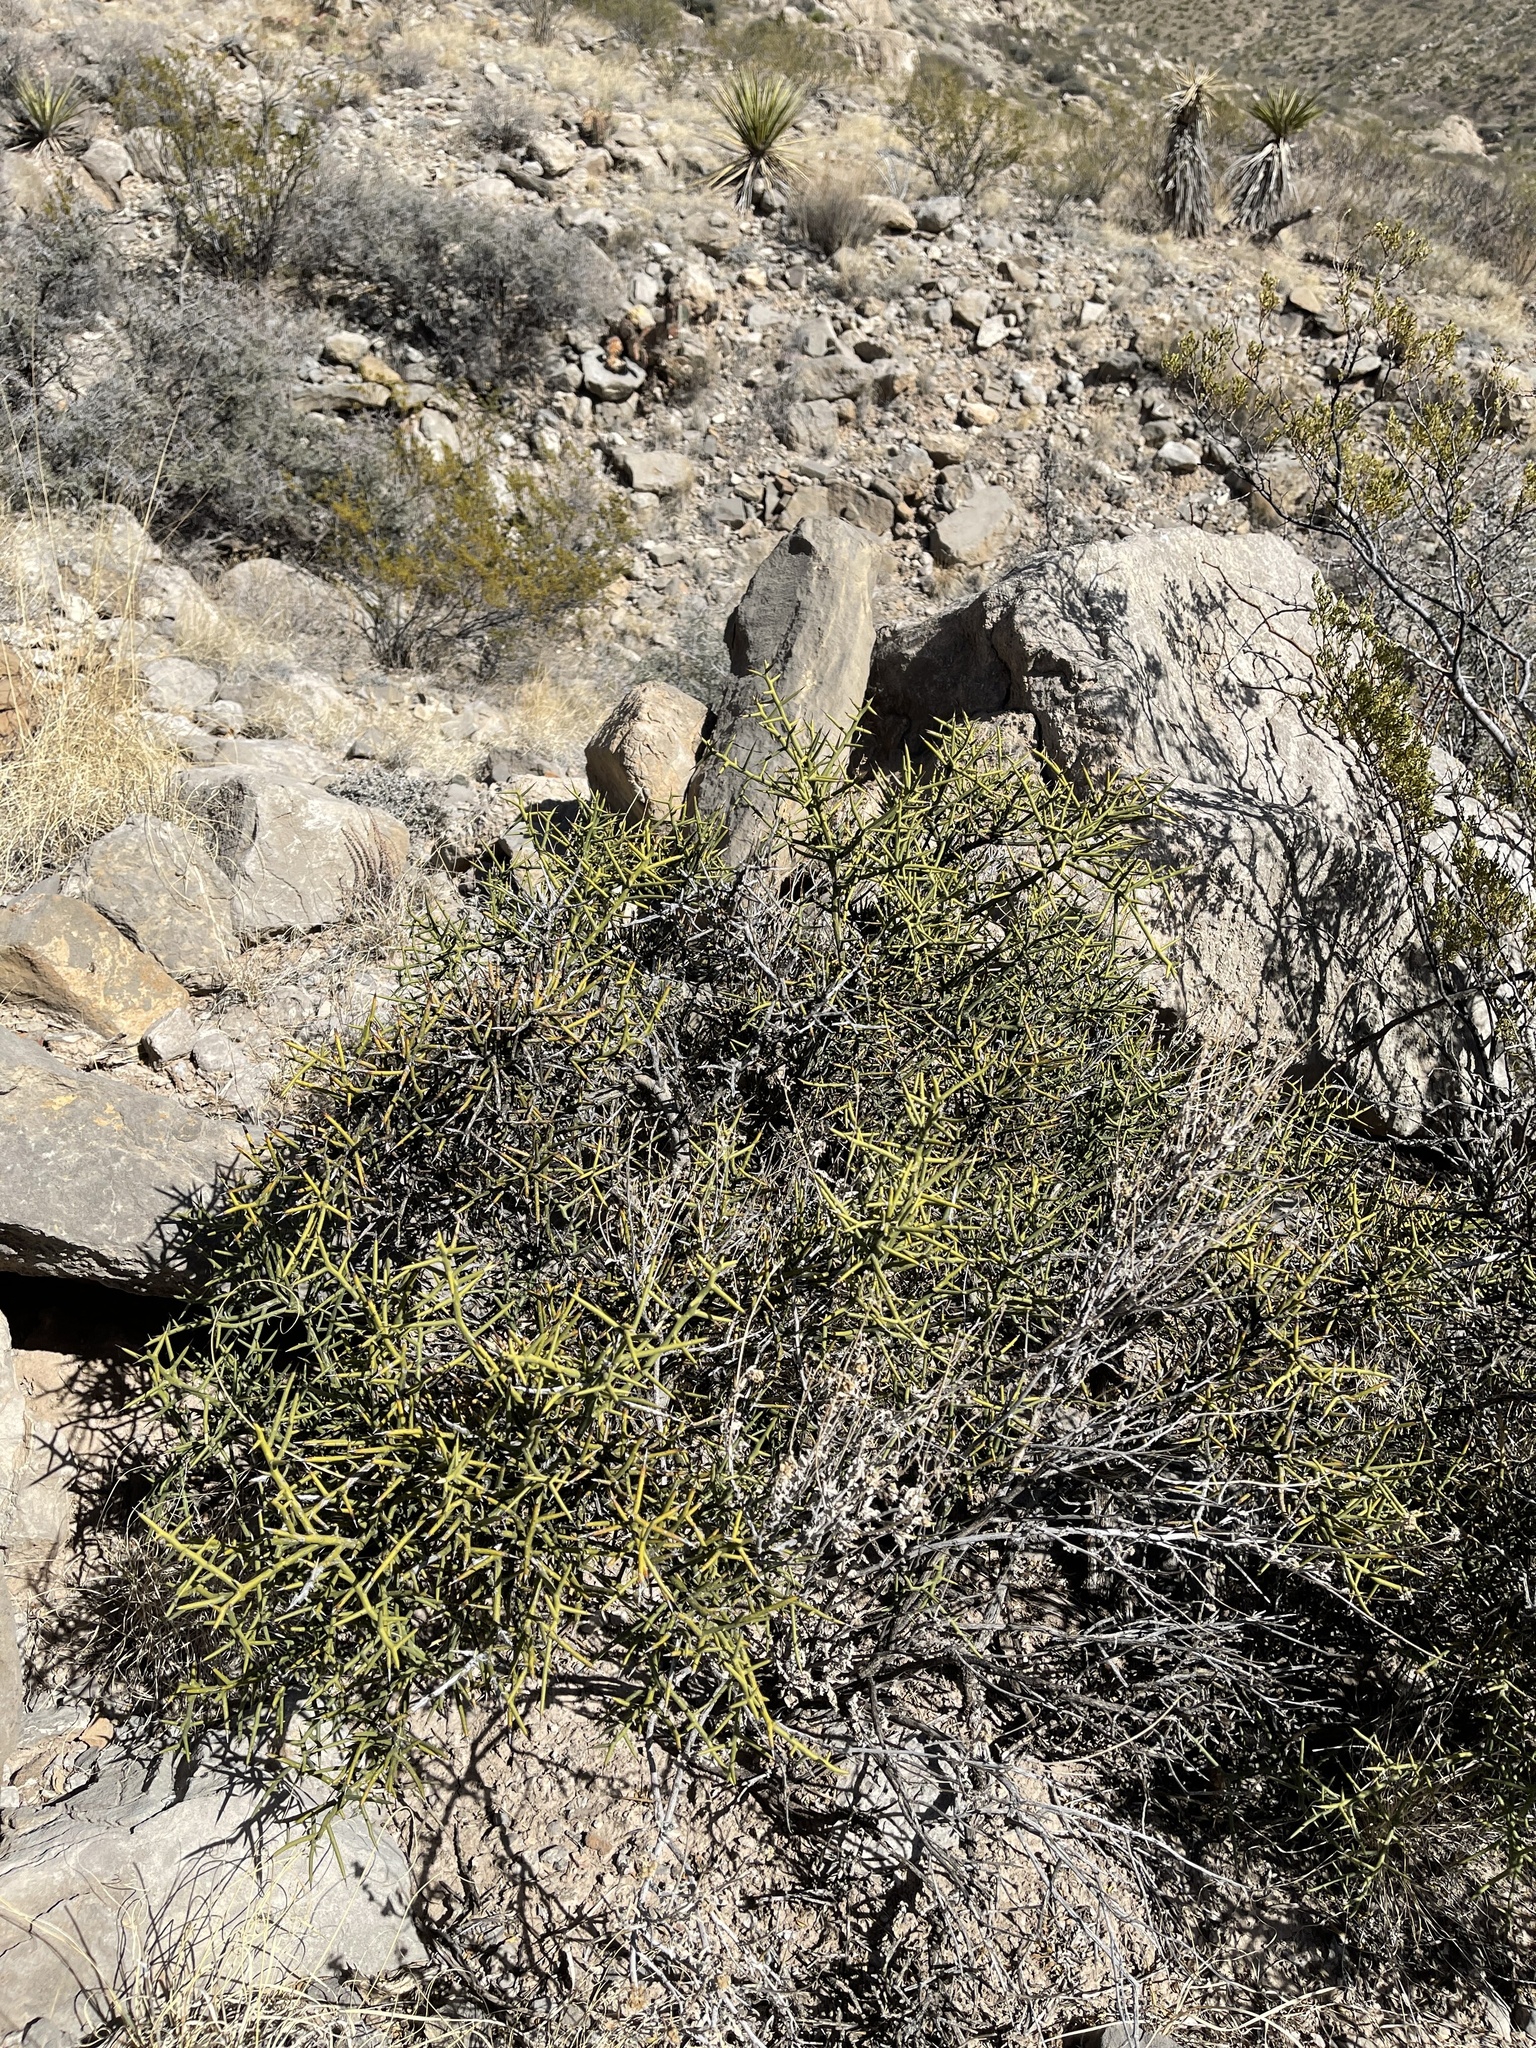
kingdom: Plantae
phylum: Tracheophyta
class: Magnoliopsida
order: Brassicales
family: Koeberliniaceae
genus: Koeberlinia
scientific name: Koeberlinia spinosa
